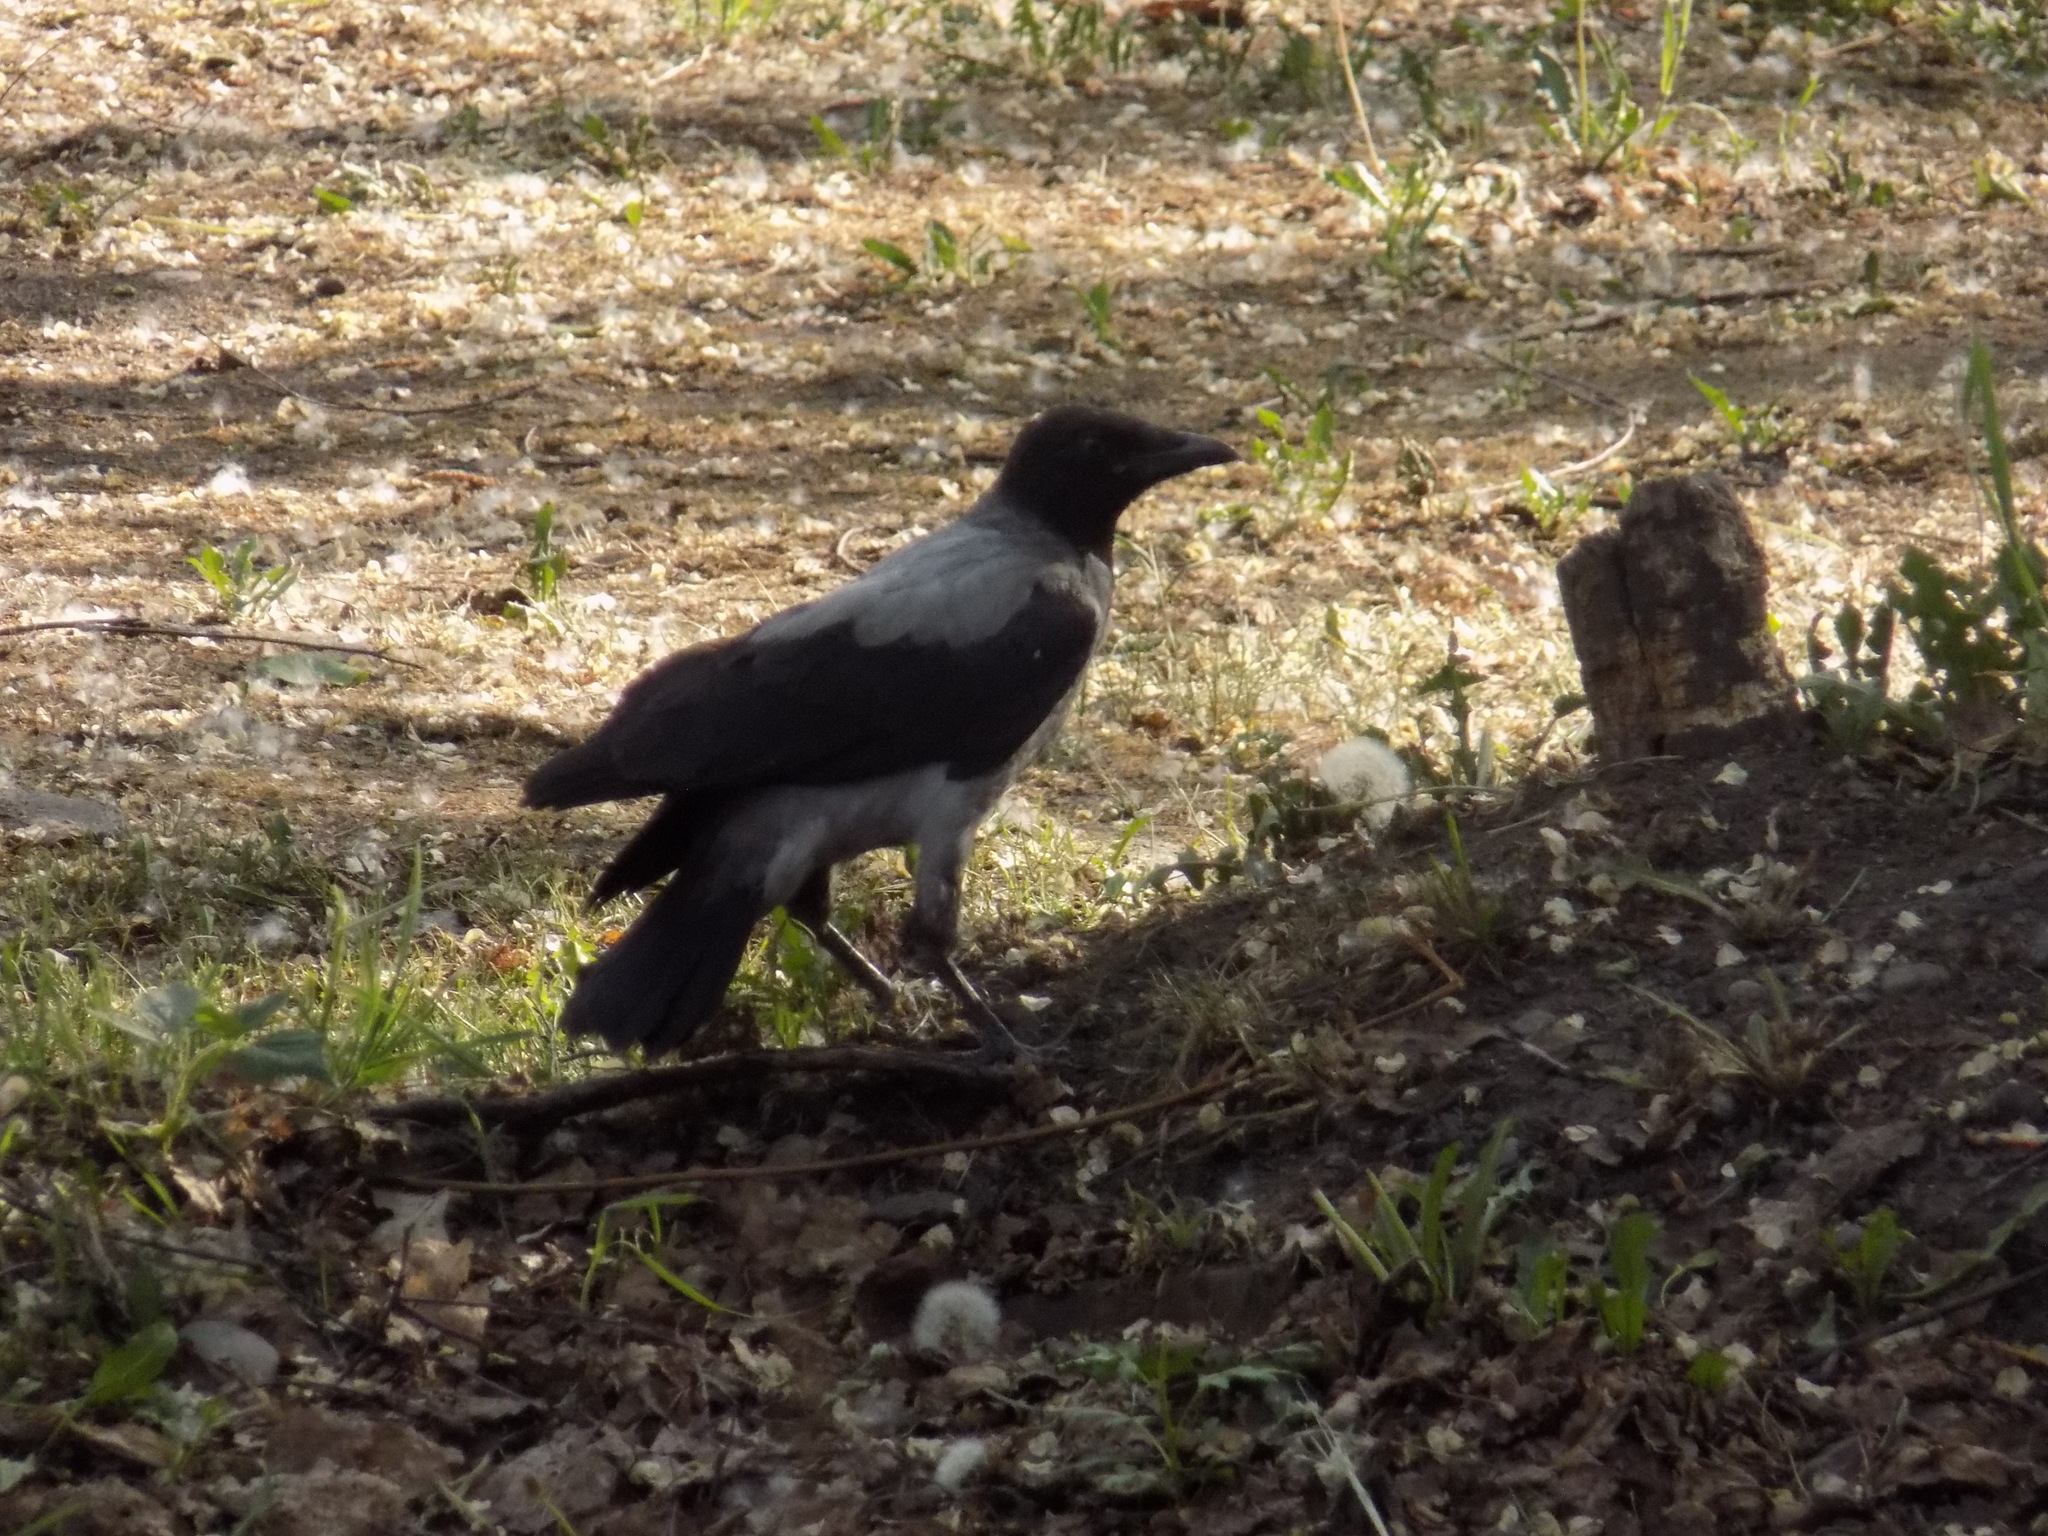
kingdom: Animalia
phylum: Chordata
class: Aves
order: Passeriformes
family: Corvidae
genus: Corvus
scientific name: Corvus cornix
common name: Hooded crow
